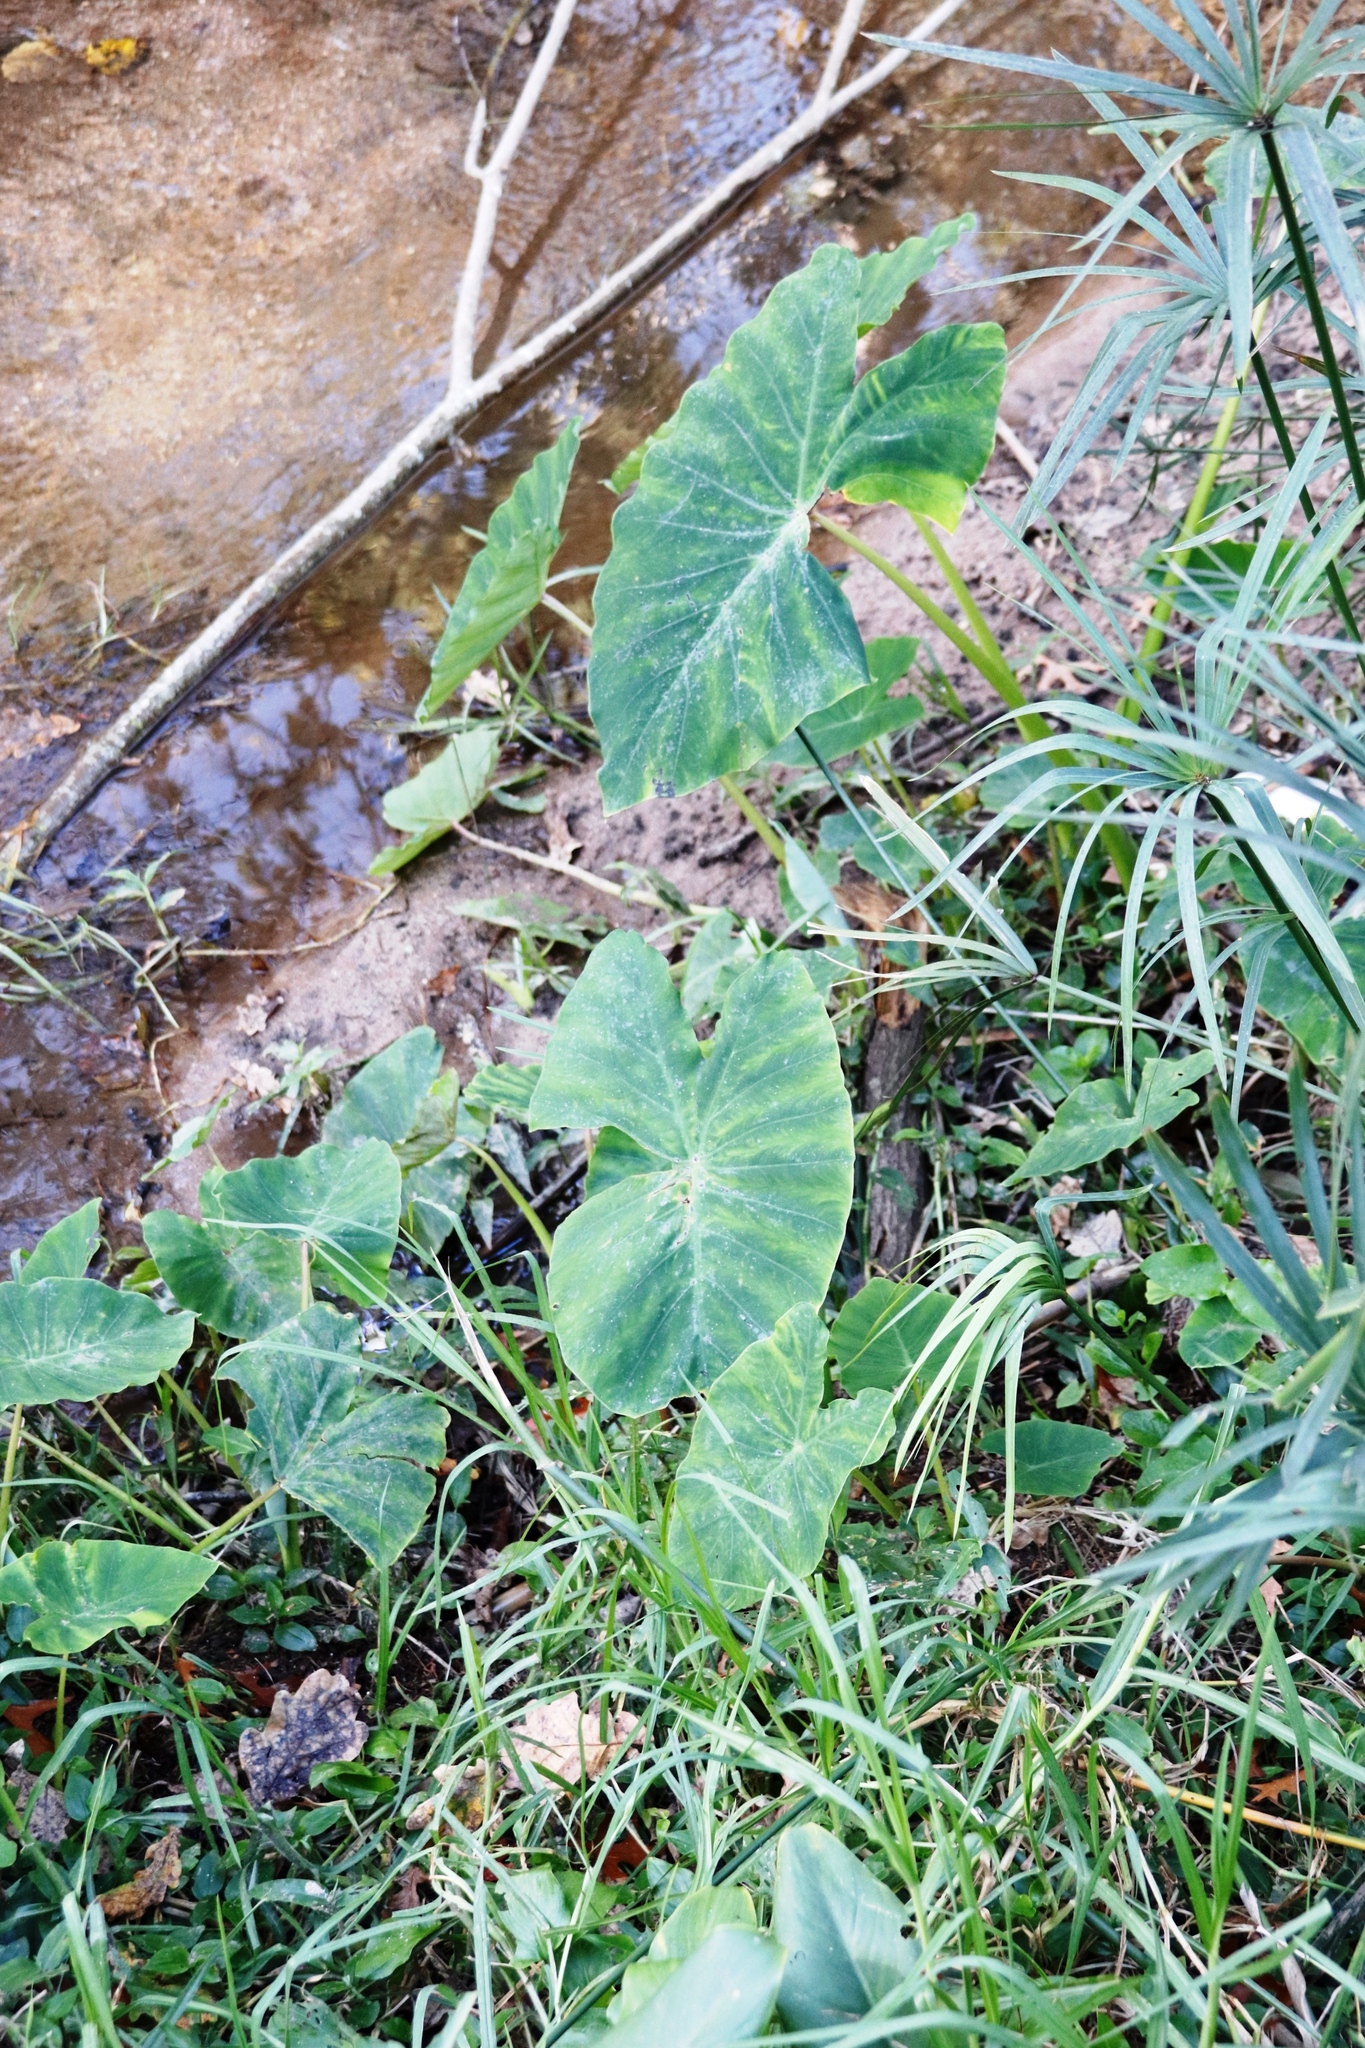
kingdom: Plantae
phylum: Tracheophyta
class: Liliopsida
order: Alismatales
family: Araceae
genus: Colocasia
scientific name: Colocasia esculenta
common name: Taro
